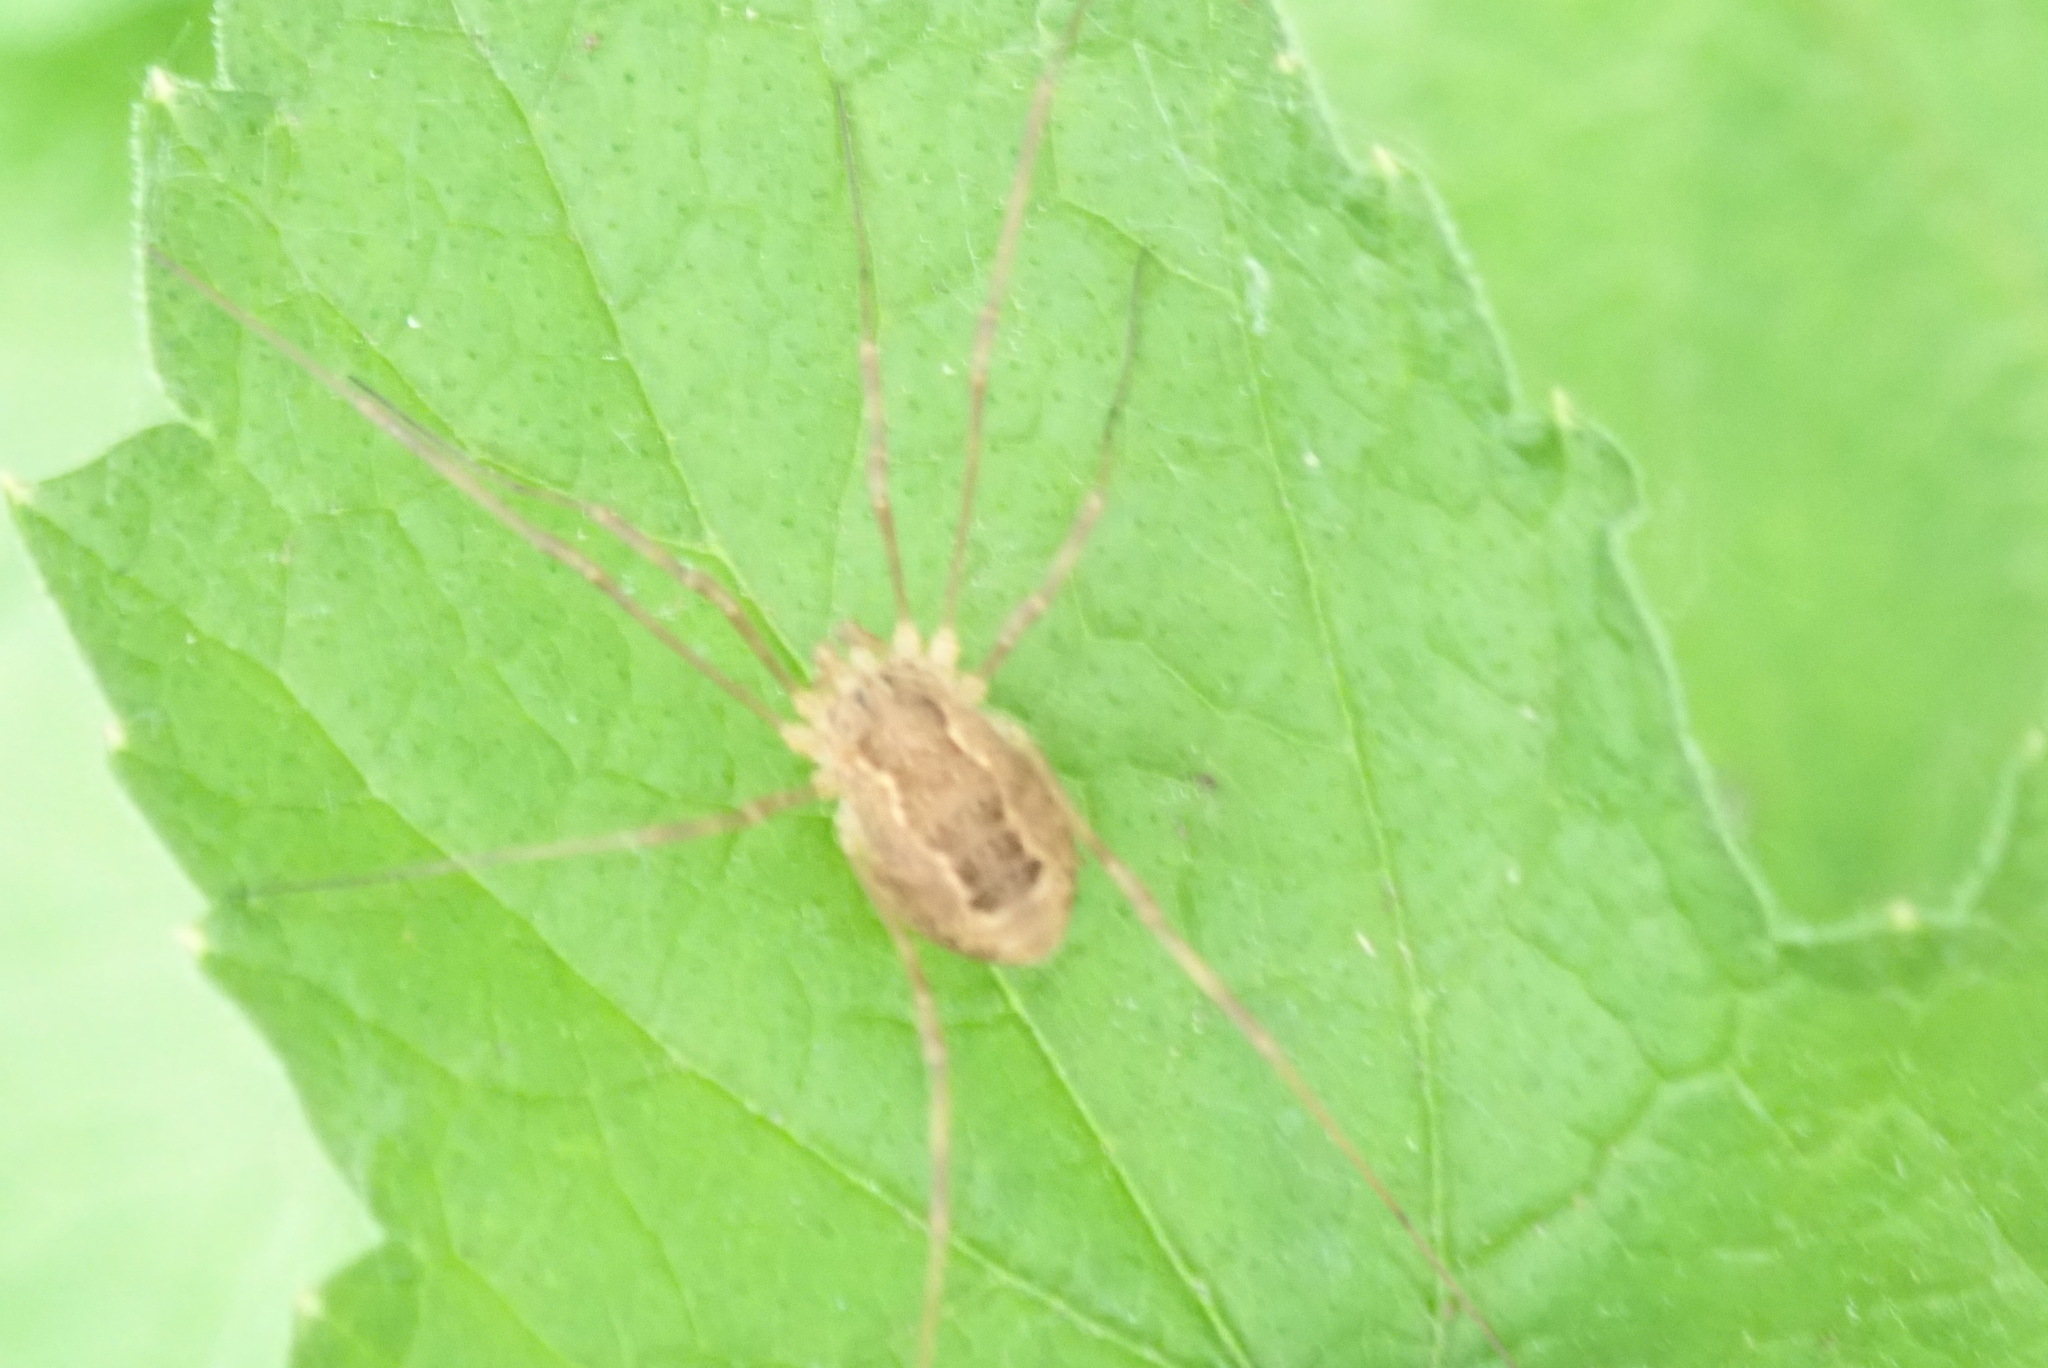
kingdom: Animalia
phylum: Arthropoda
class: Arachnida
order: Opiliones
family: Phalangiidae
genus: Rilaena
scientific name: Rilaena triangularis
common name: Spring harvestman
